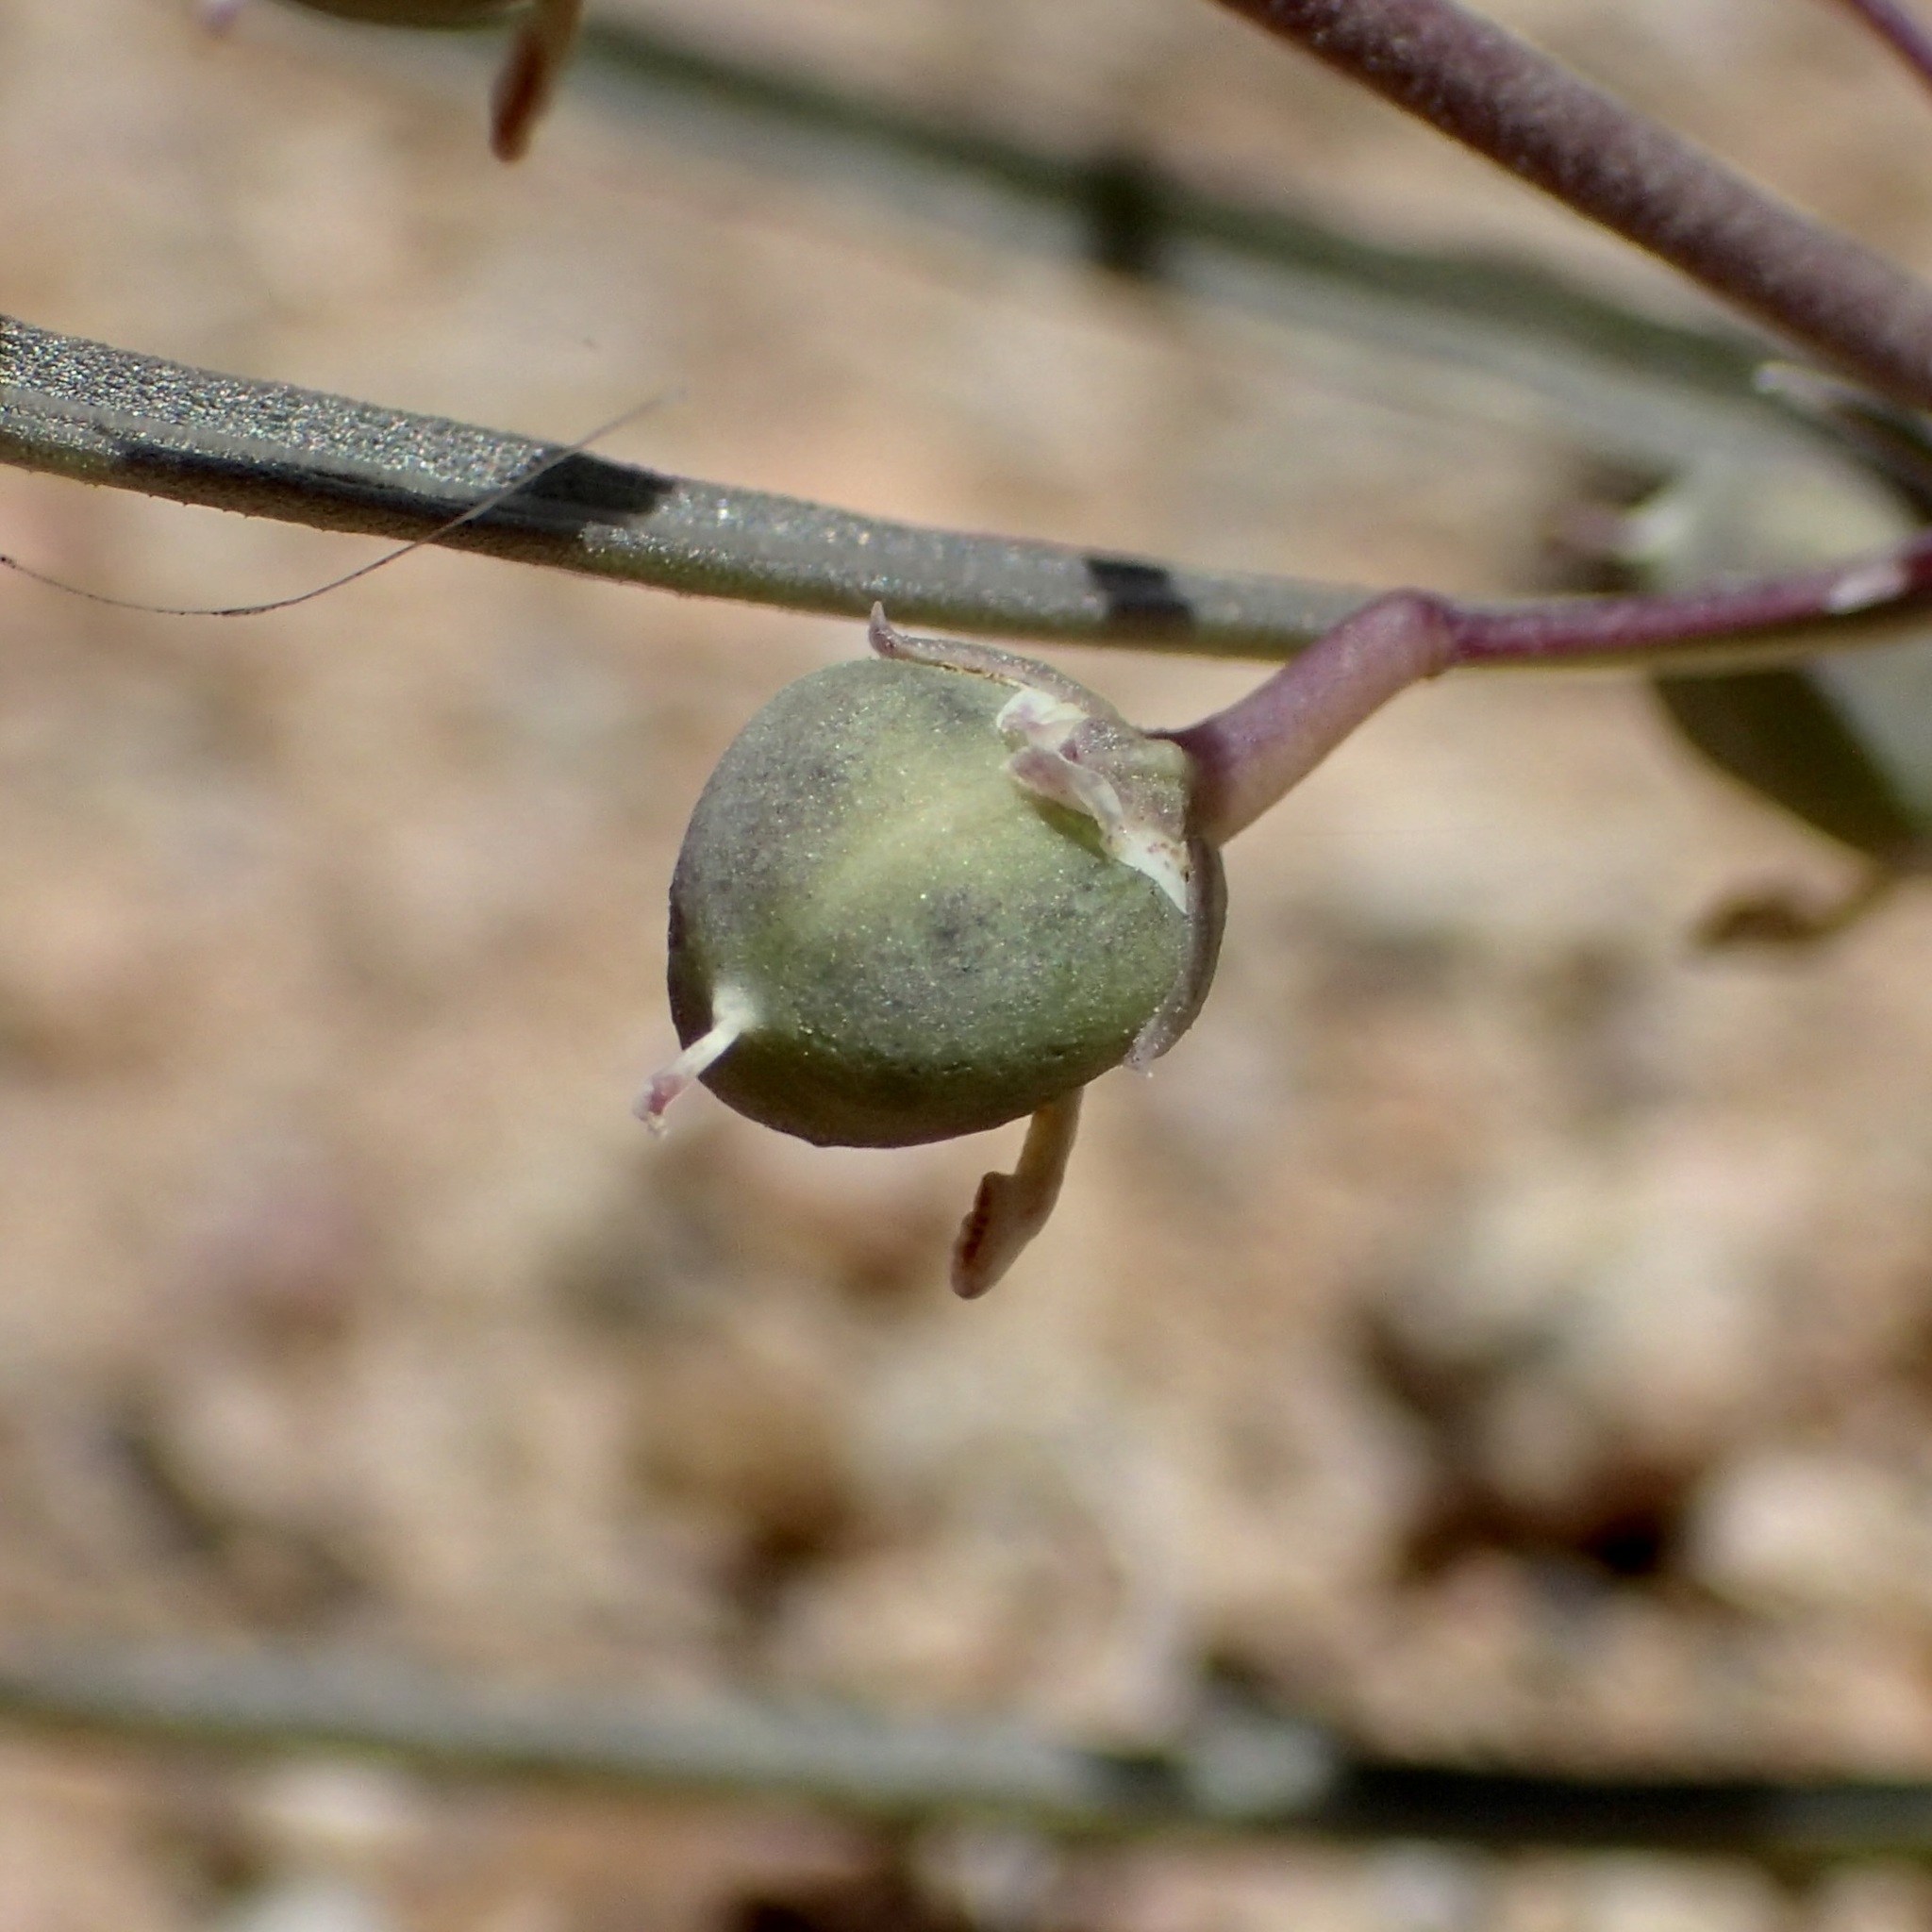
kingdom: Plantae
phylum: Tracheophyta
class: Magnoliopsida
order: Malpighiales
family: Violaceae
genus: Pombalia
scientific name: Pombalia verticillata
